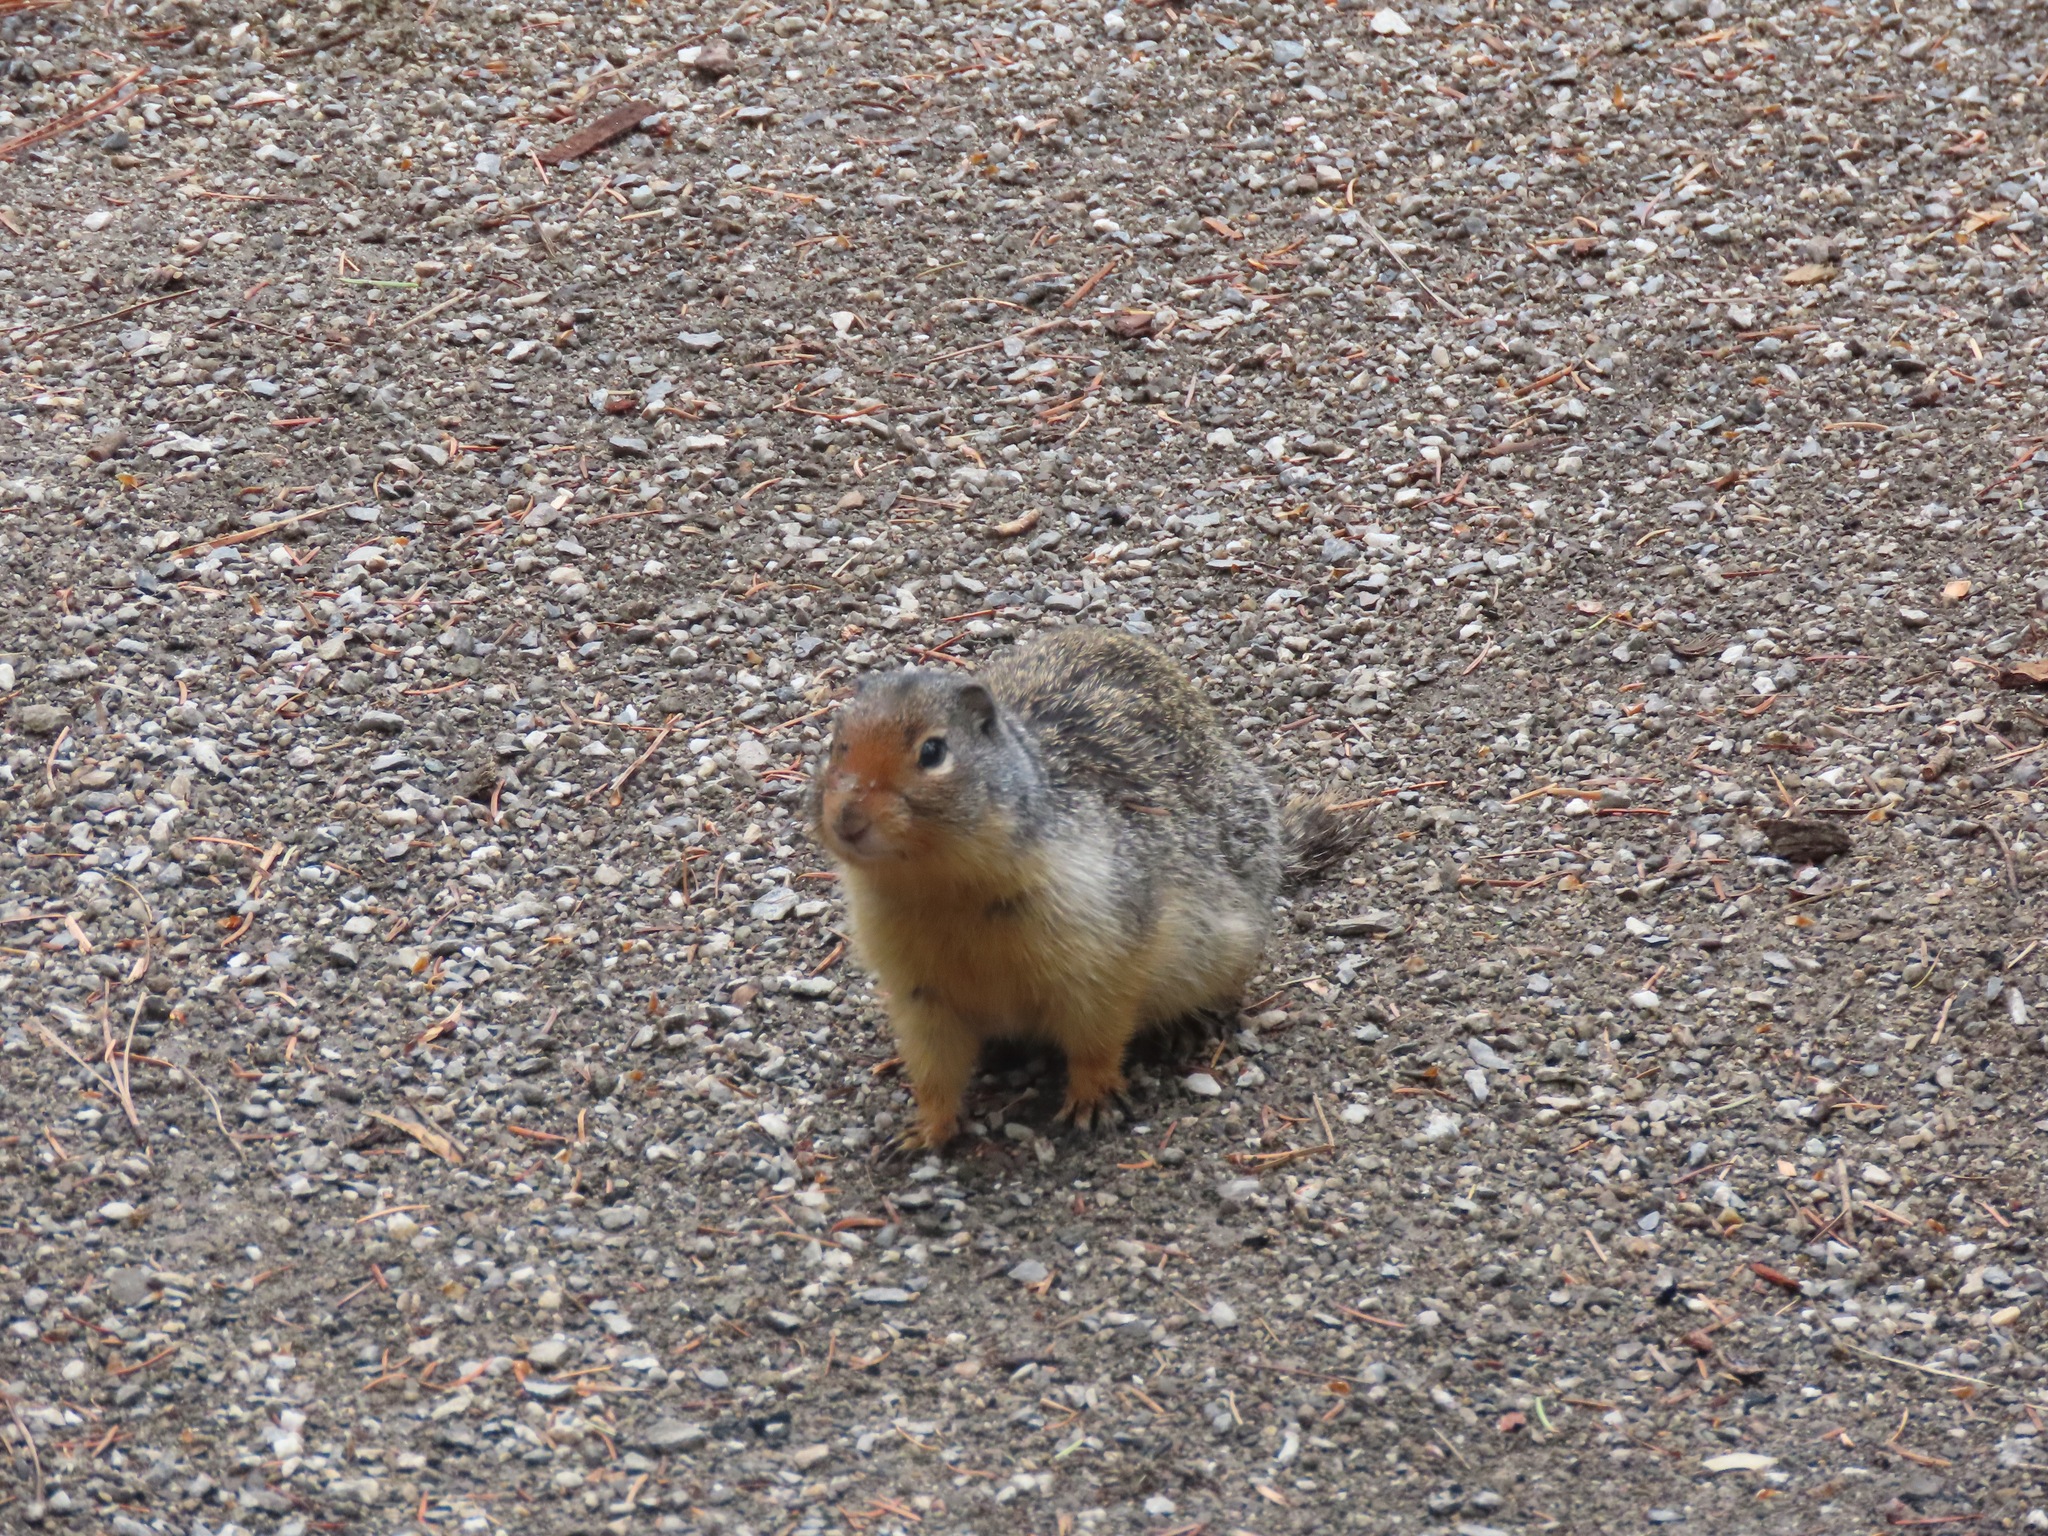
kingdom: Animalia
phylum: Chordata
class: Mammalia
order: Rodentia
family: Sciuridae
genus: Urocitellus
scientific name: Urocitellus columbianus
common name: Columbian ground squirrel
